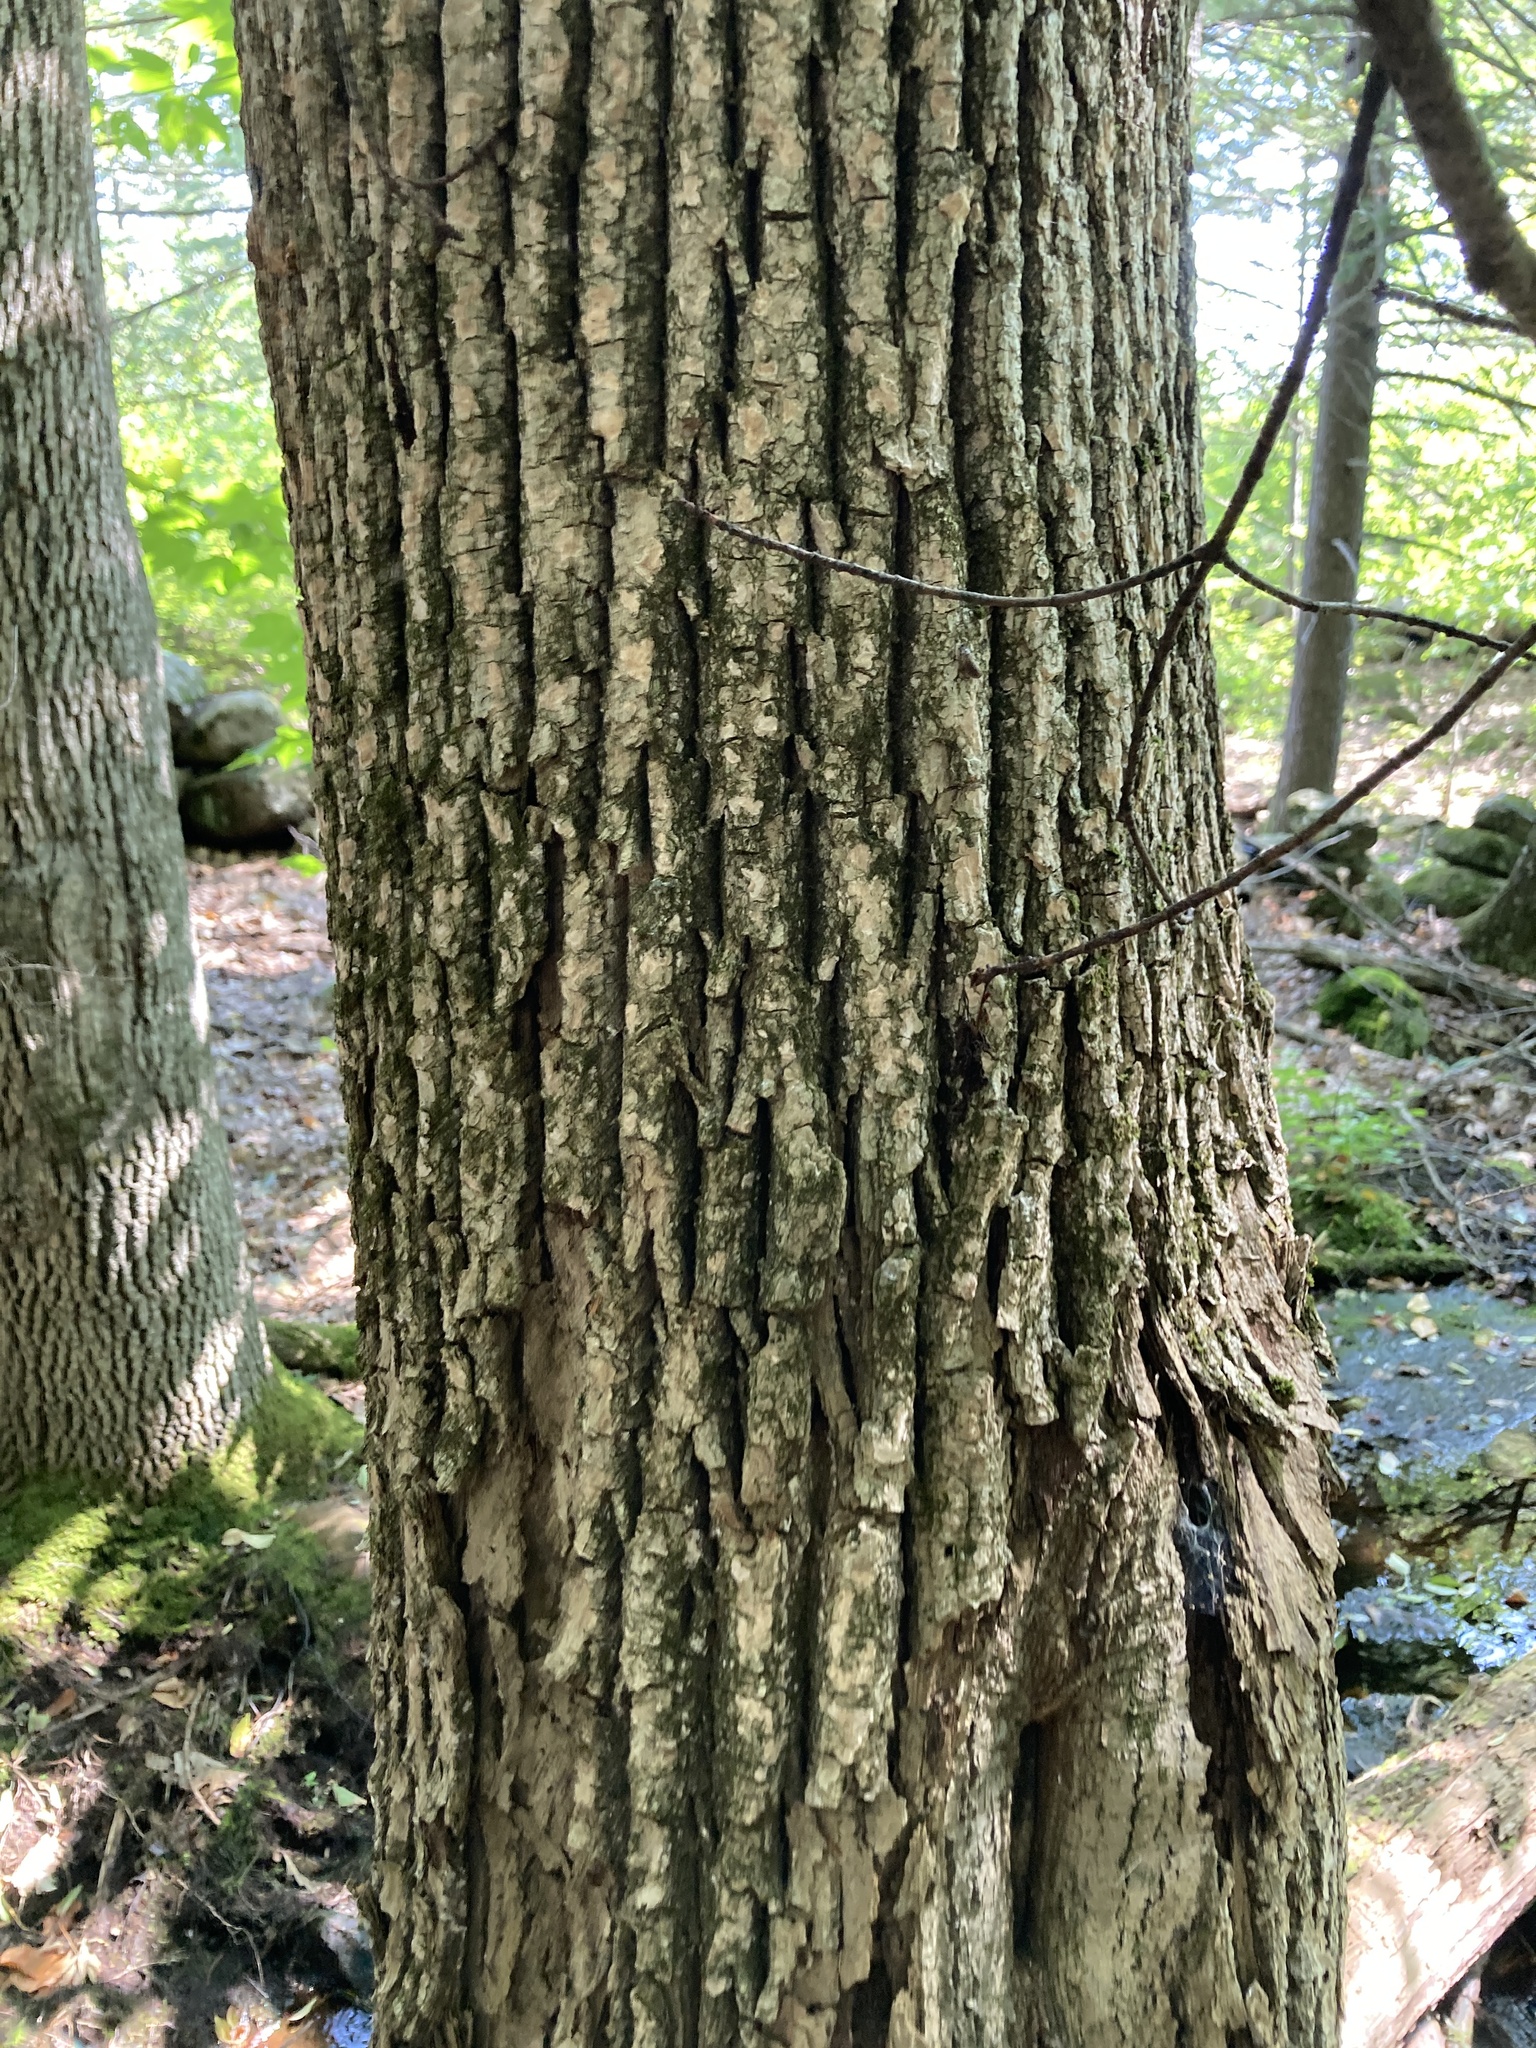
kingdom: Plantae
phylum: Tracheophyta
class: Magnoliopsida
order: Lamiales
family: Oleaceae
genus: Fraxinus
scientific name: Fraxinus americana
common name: White ash
